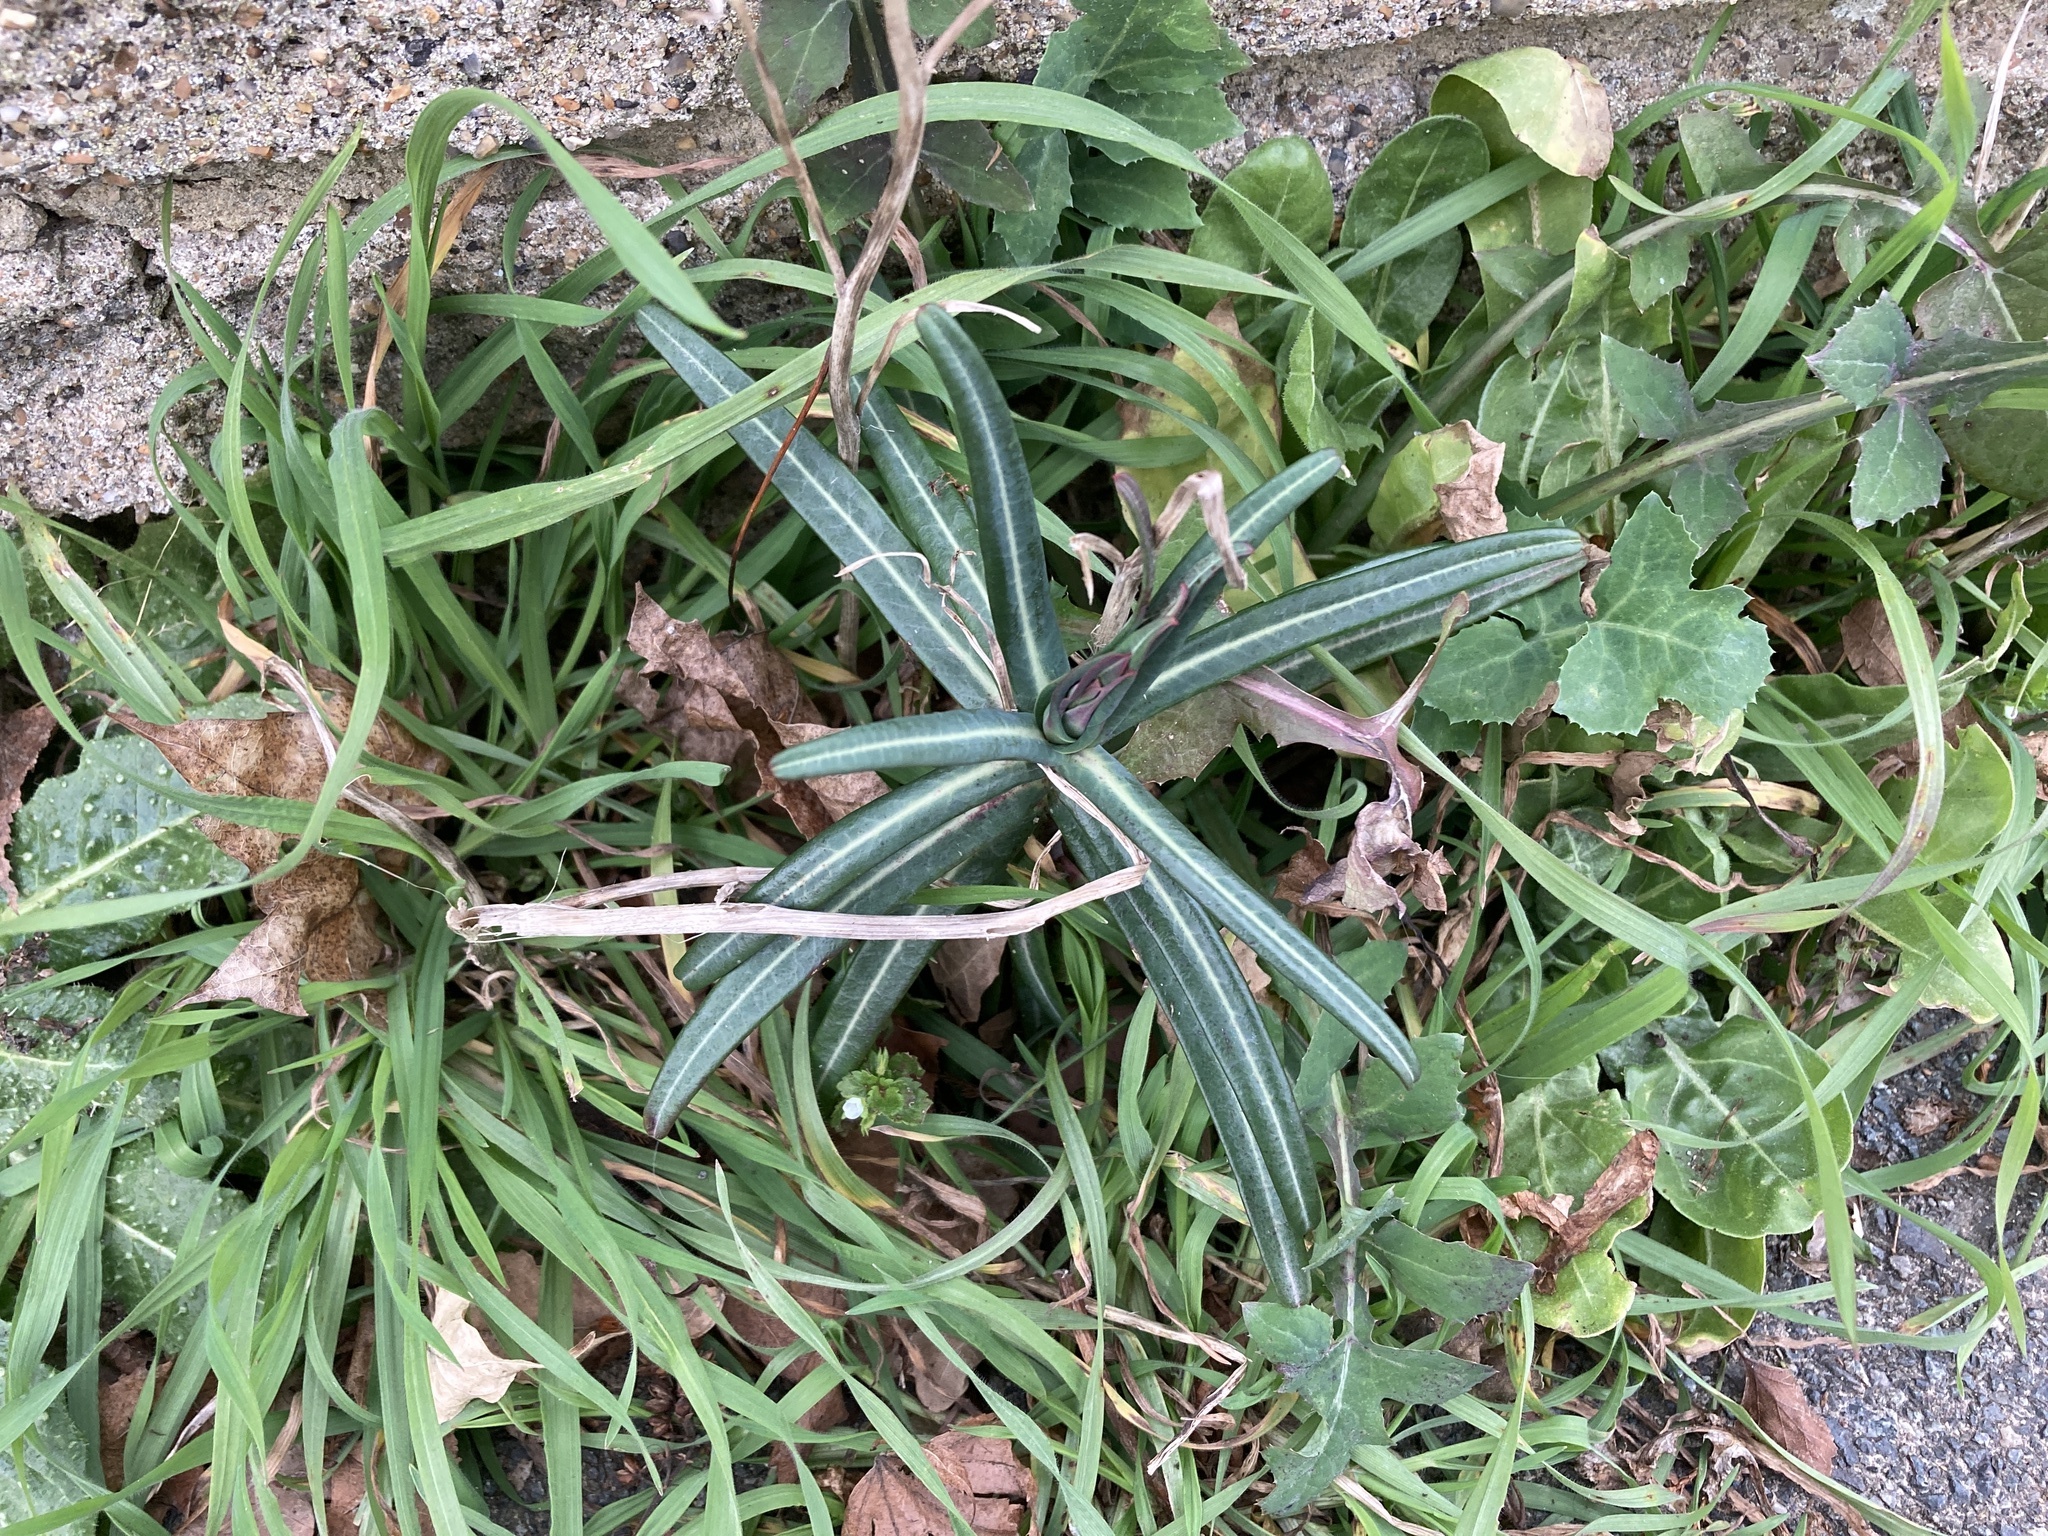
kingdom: Plantae
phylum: Tracheophyta
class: Magnoliopsida
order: Malpighiales
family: Euphorbiaceae
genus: Euphorbia
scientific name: Euphorbia lathyris
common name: Caper spurge
